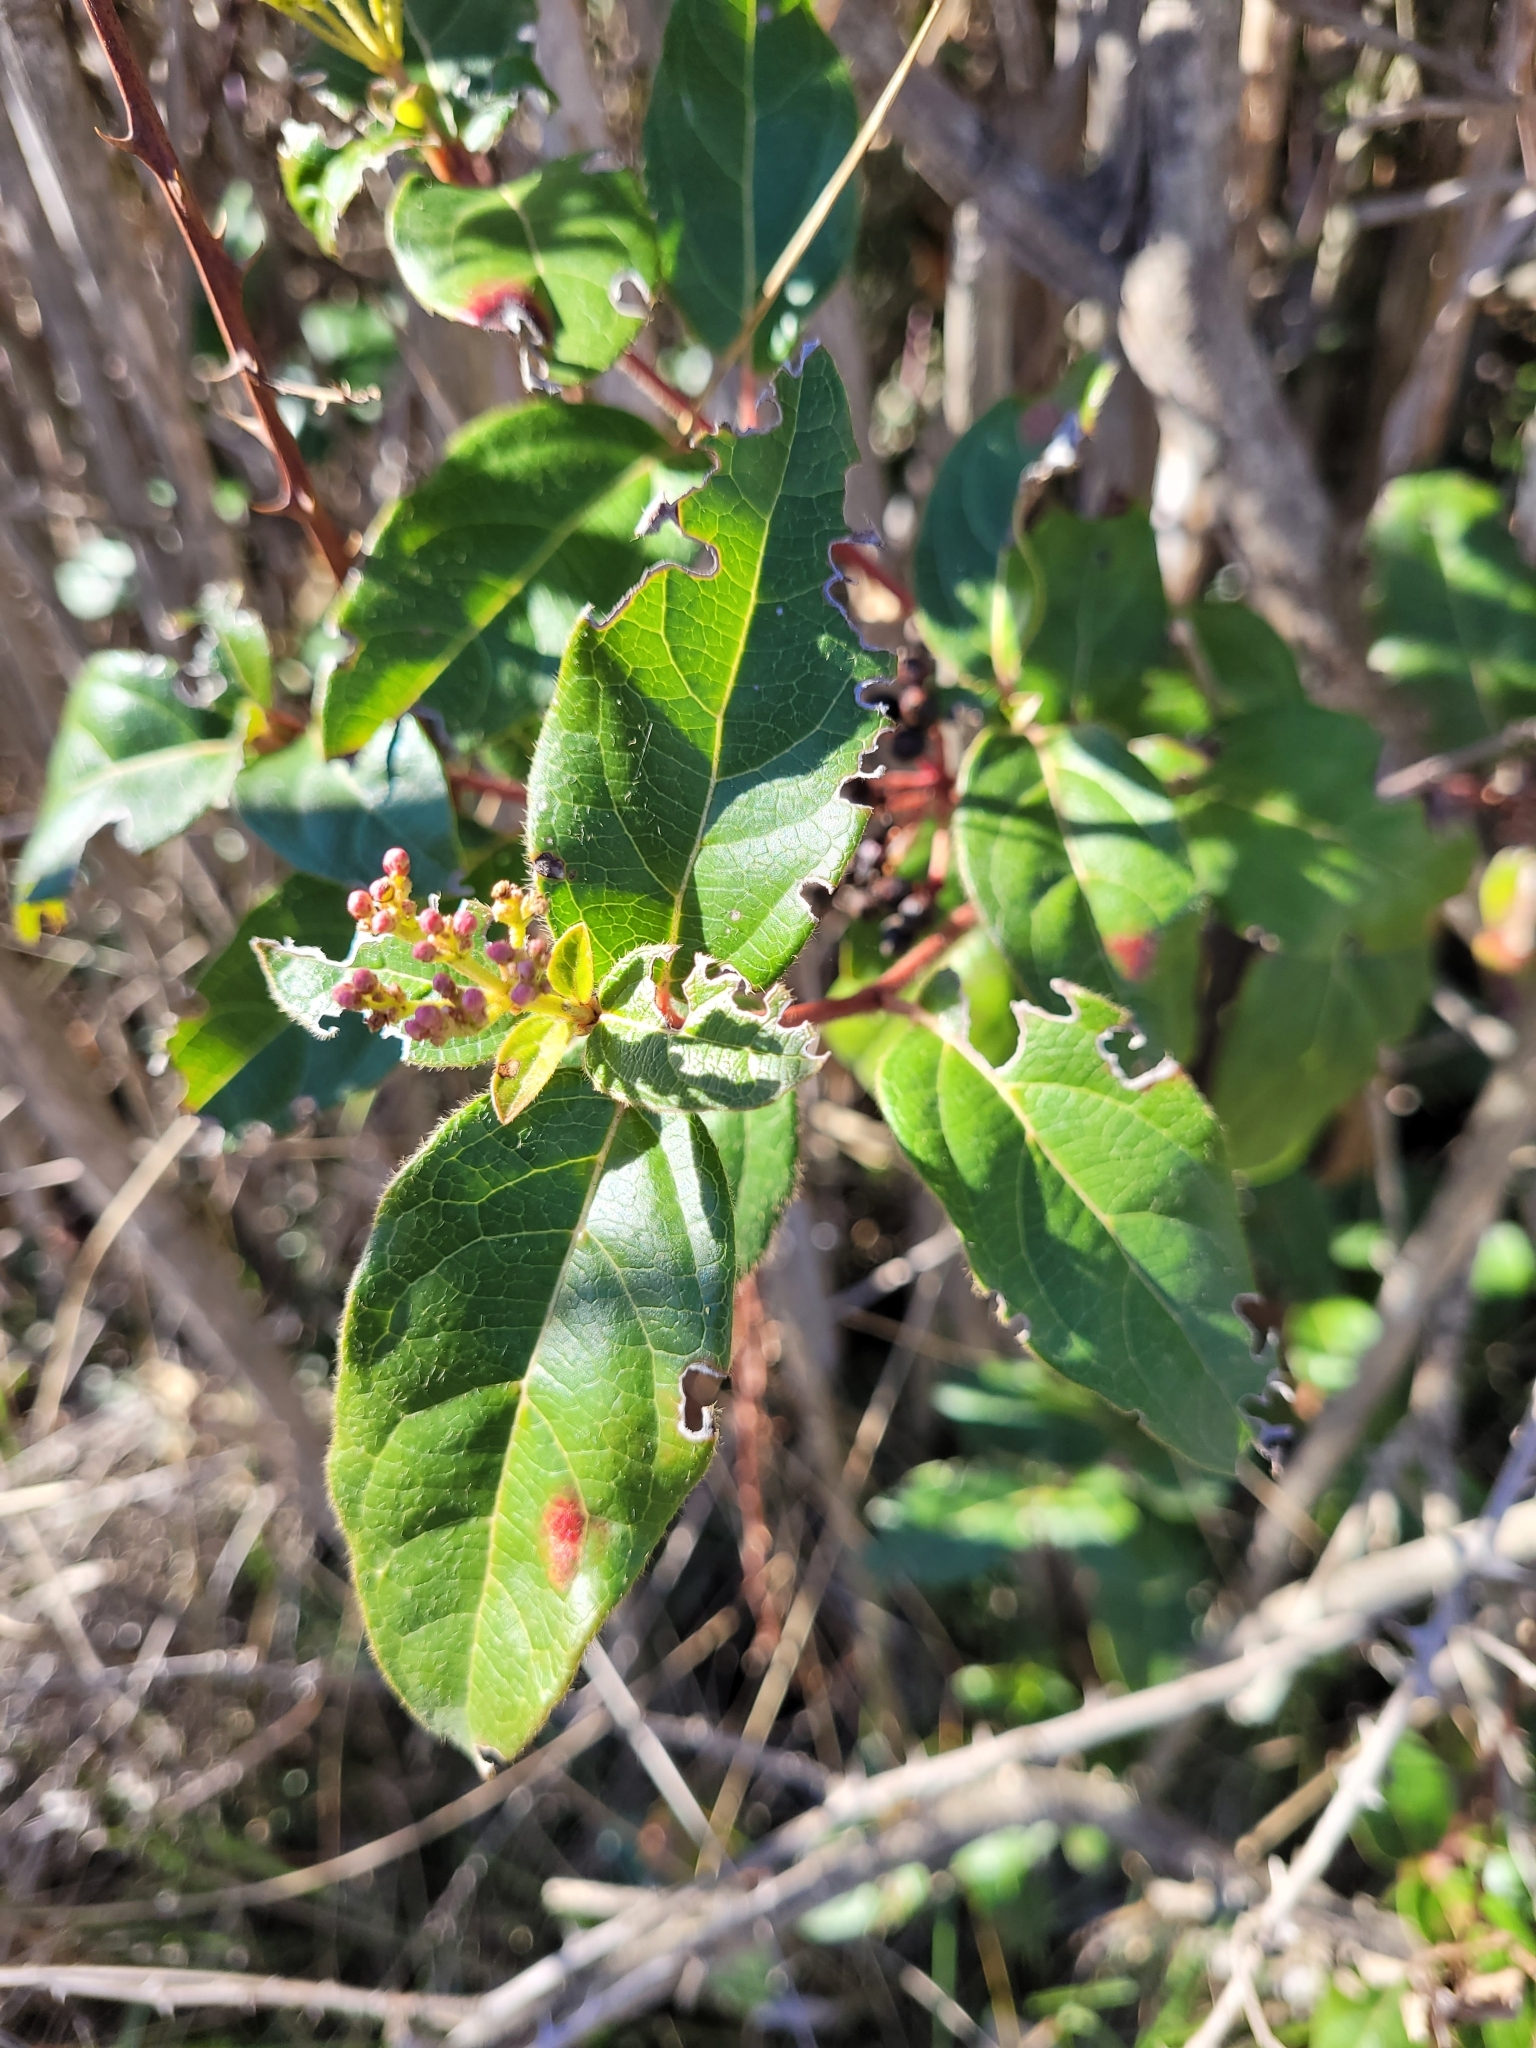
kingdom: Plantae
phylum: Tracheophyta
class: Magnoliopsida
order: Dipsacales
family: Viburnaceae
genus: Viburnum
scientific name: Viburnum tinus
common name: Laurustinus
